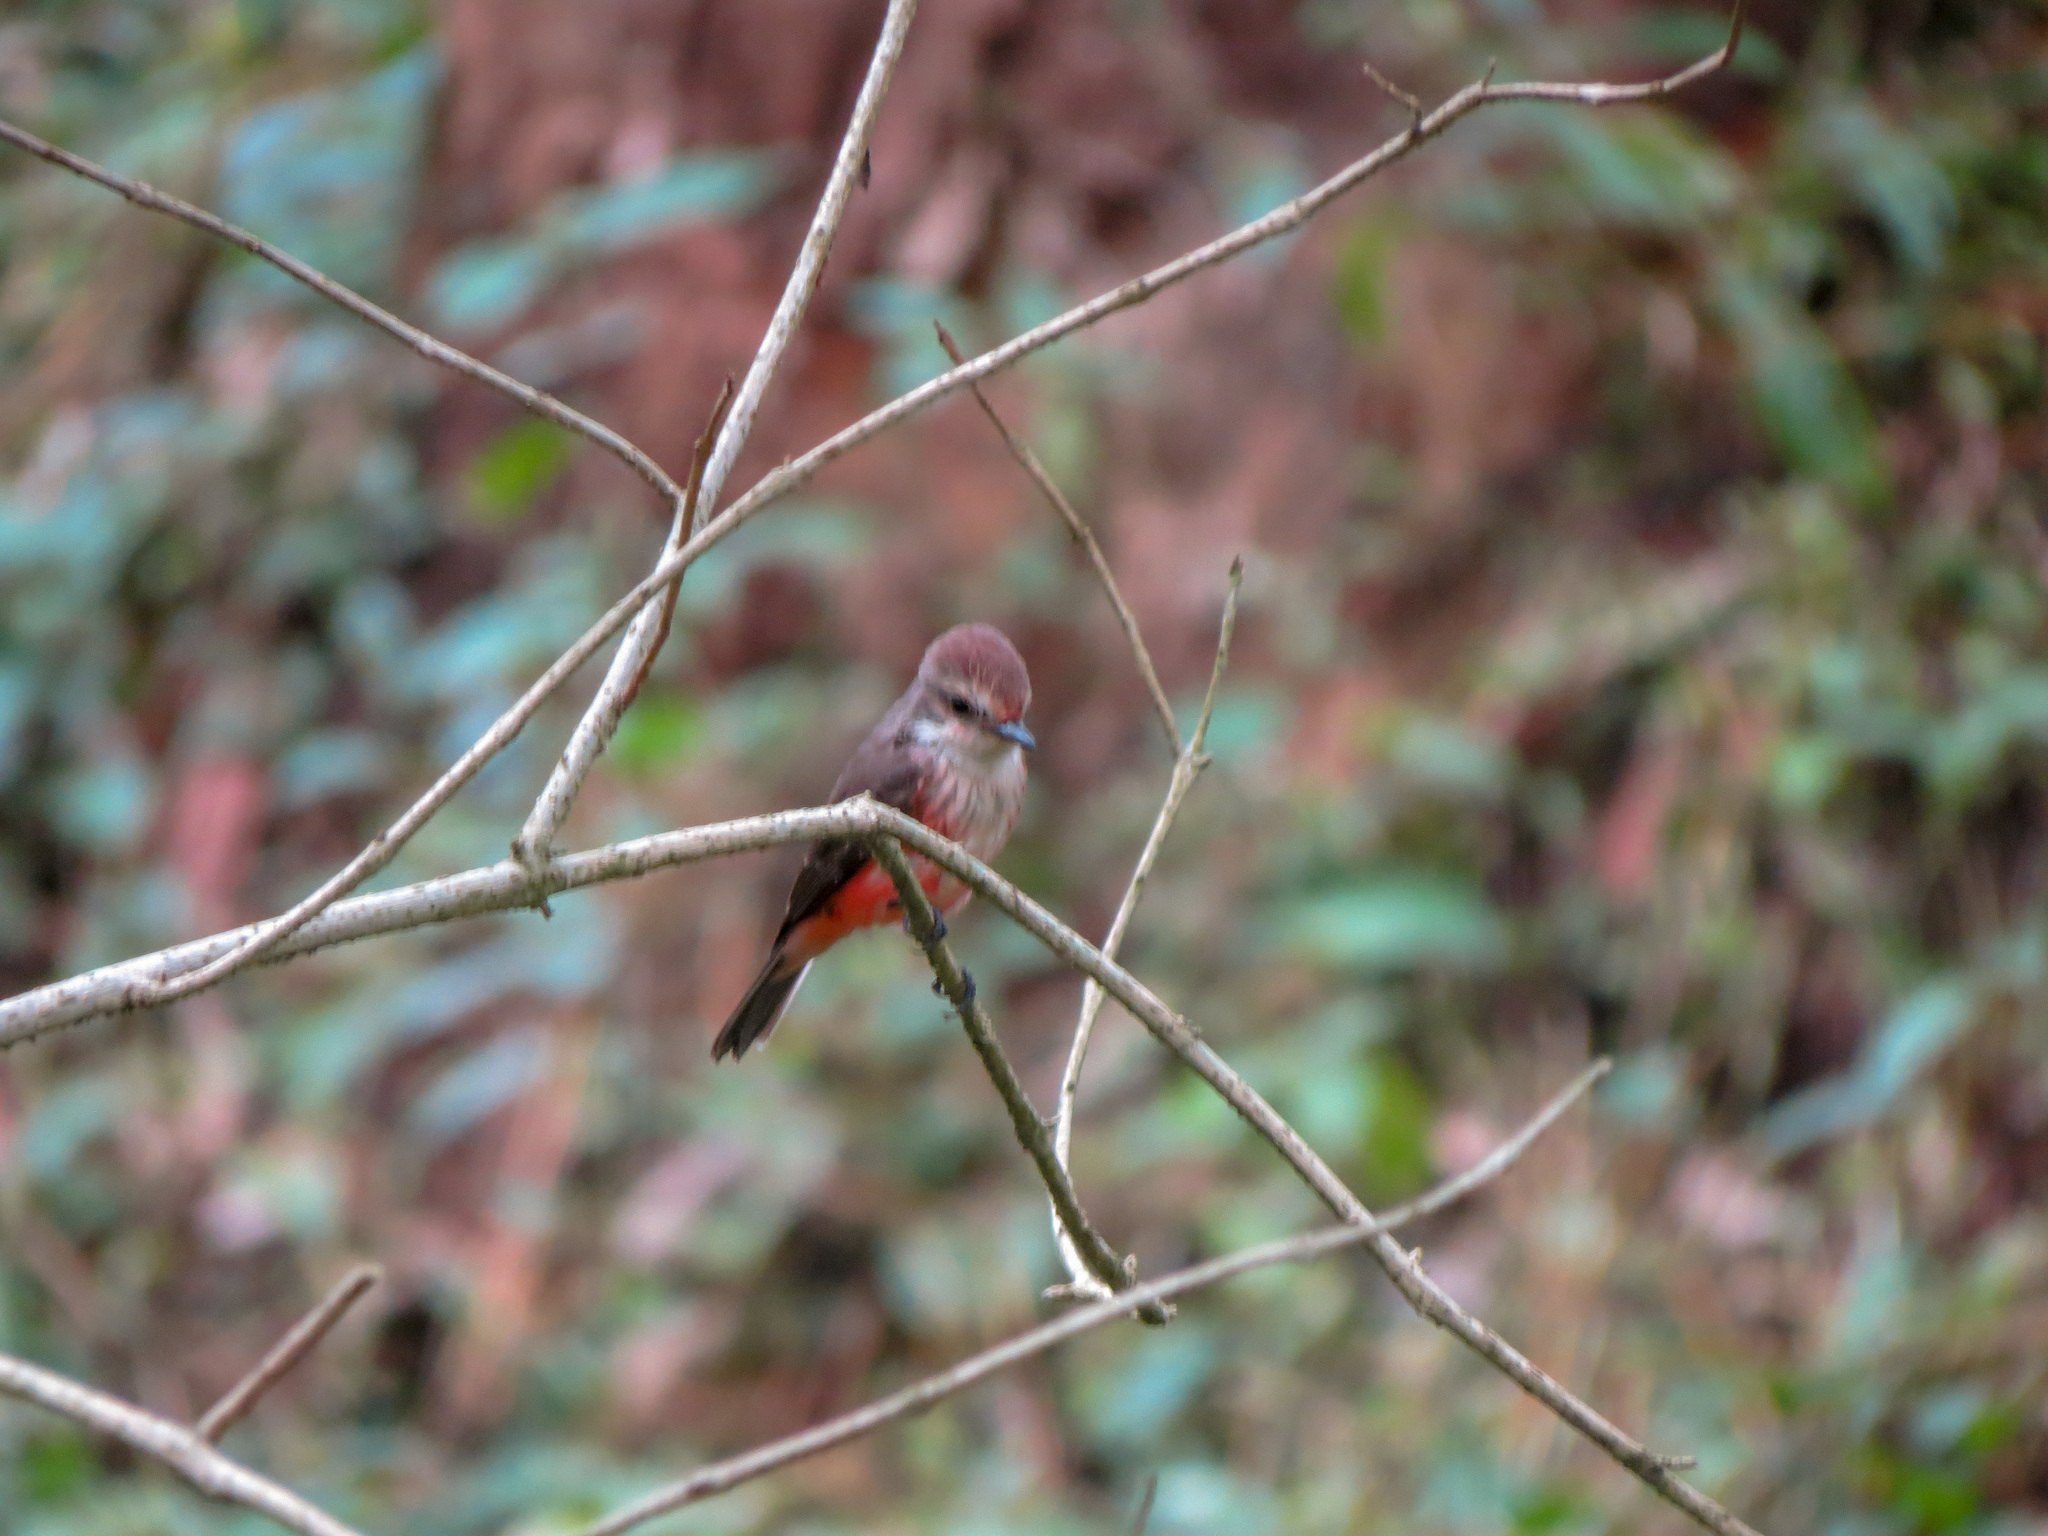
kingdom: Animalia
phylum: Chordata
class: Aves
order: Passeriformes
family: Tyrannidae
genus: Pyrocephalus
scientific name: Pyrocephalus rubinus
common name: Vermilion flycatcher
